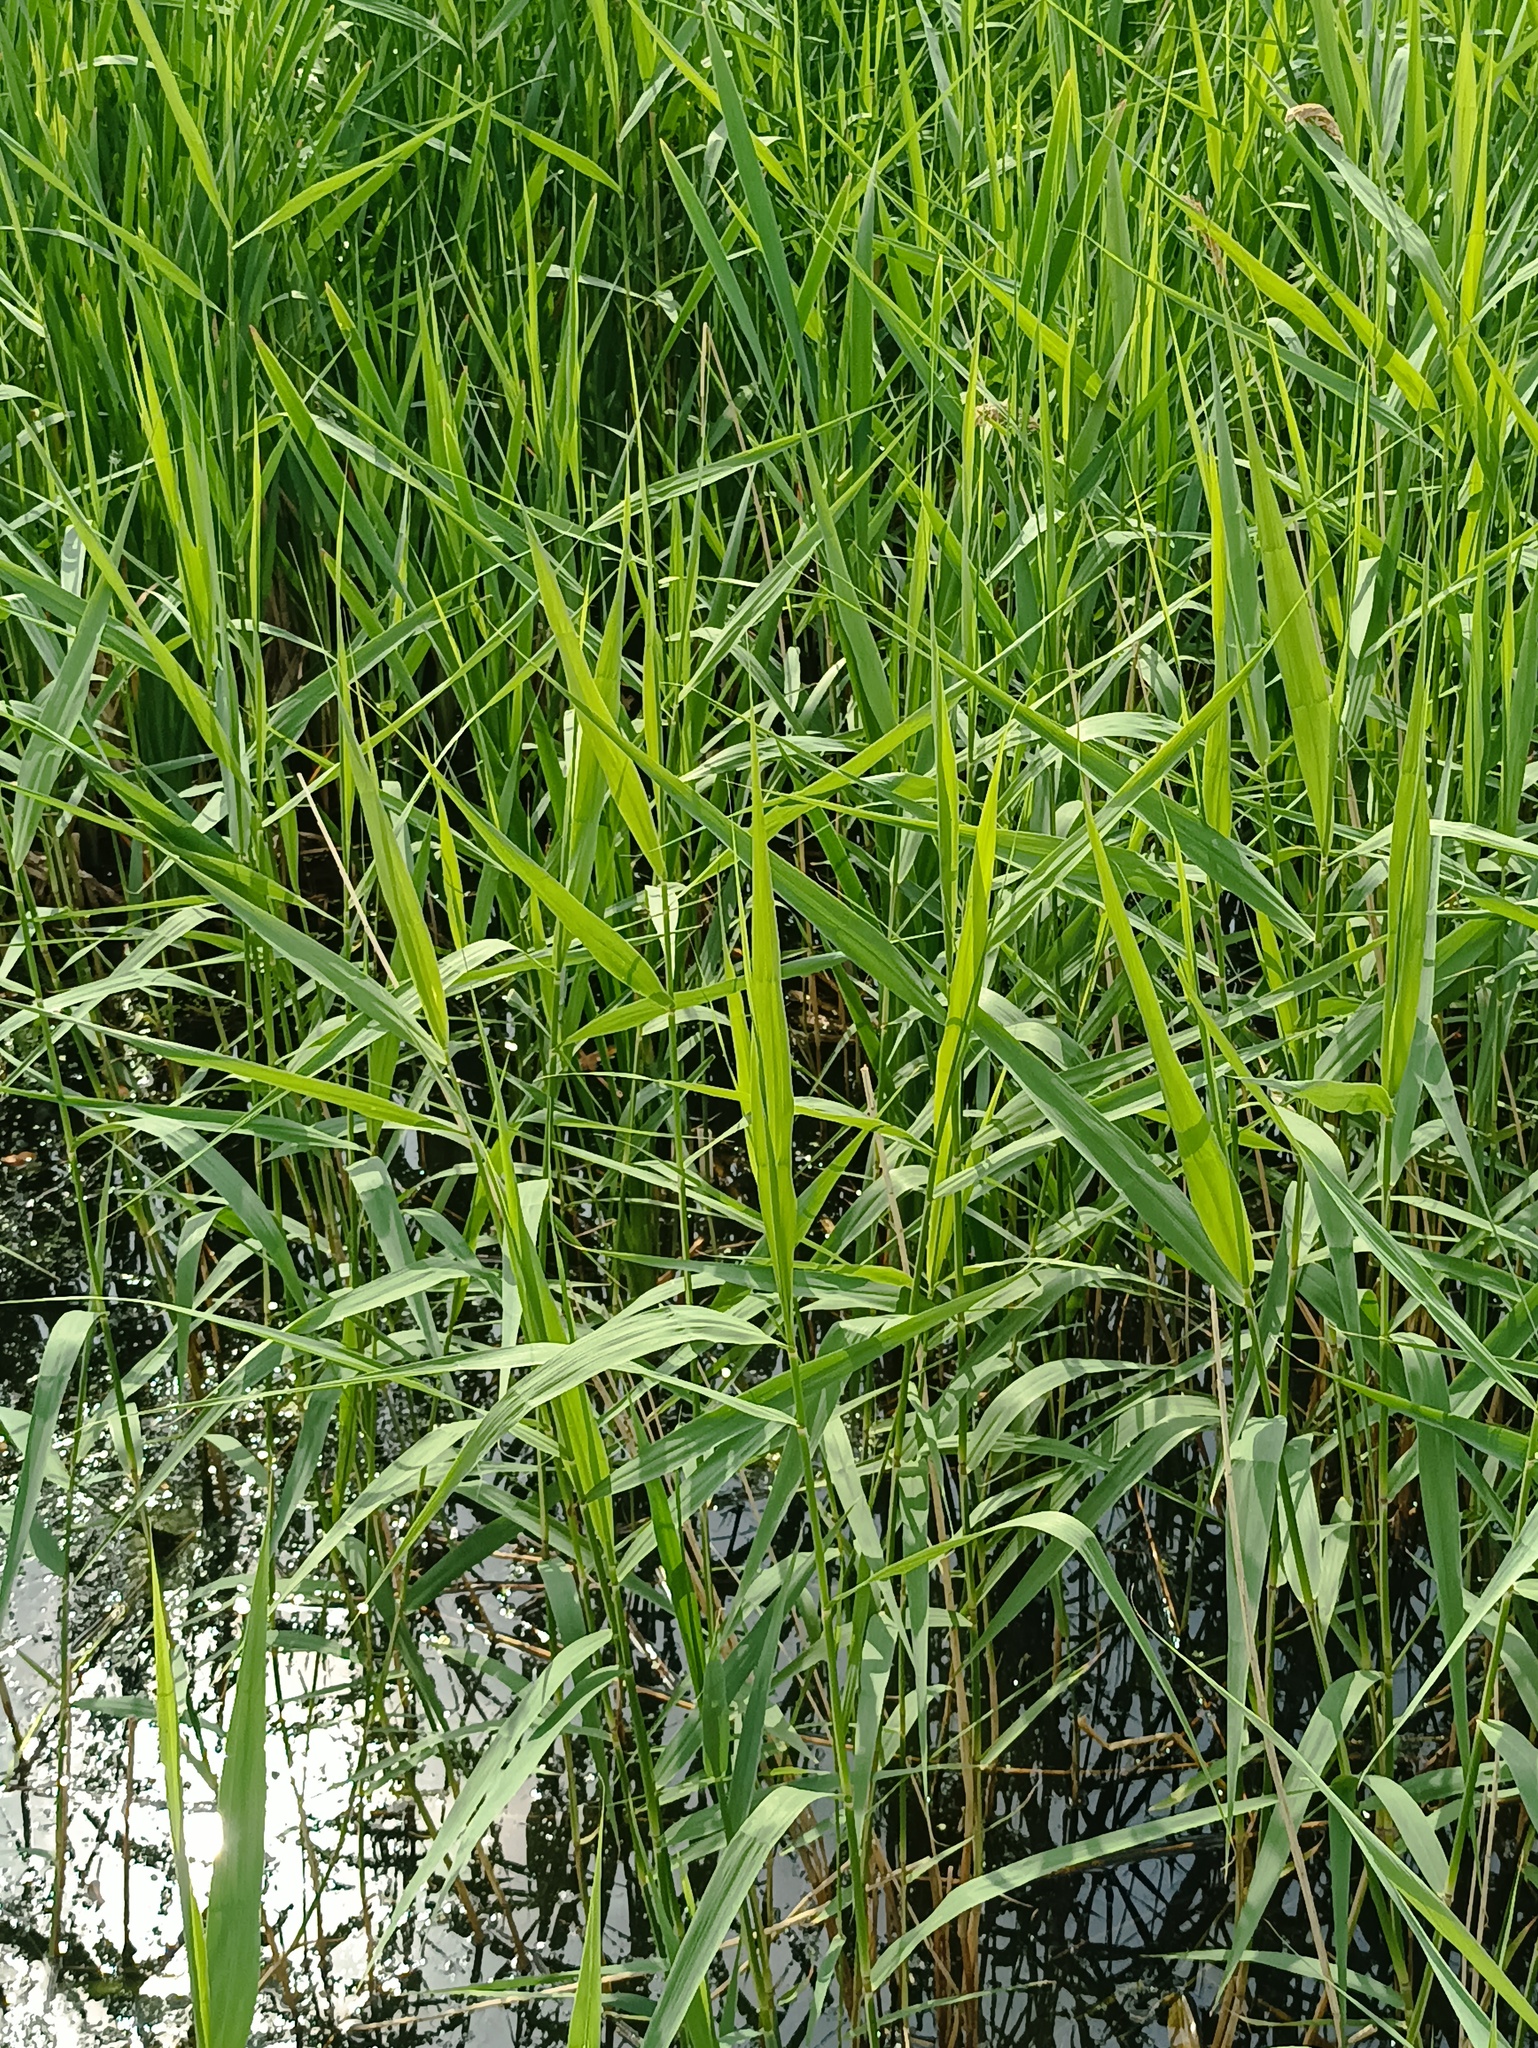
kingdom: Plantae
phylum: Tracheophyta
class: Liliopsida
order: Poales
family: Poaceae
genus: Phragmites
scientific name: Phragmites australis
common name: Common reed
